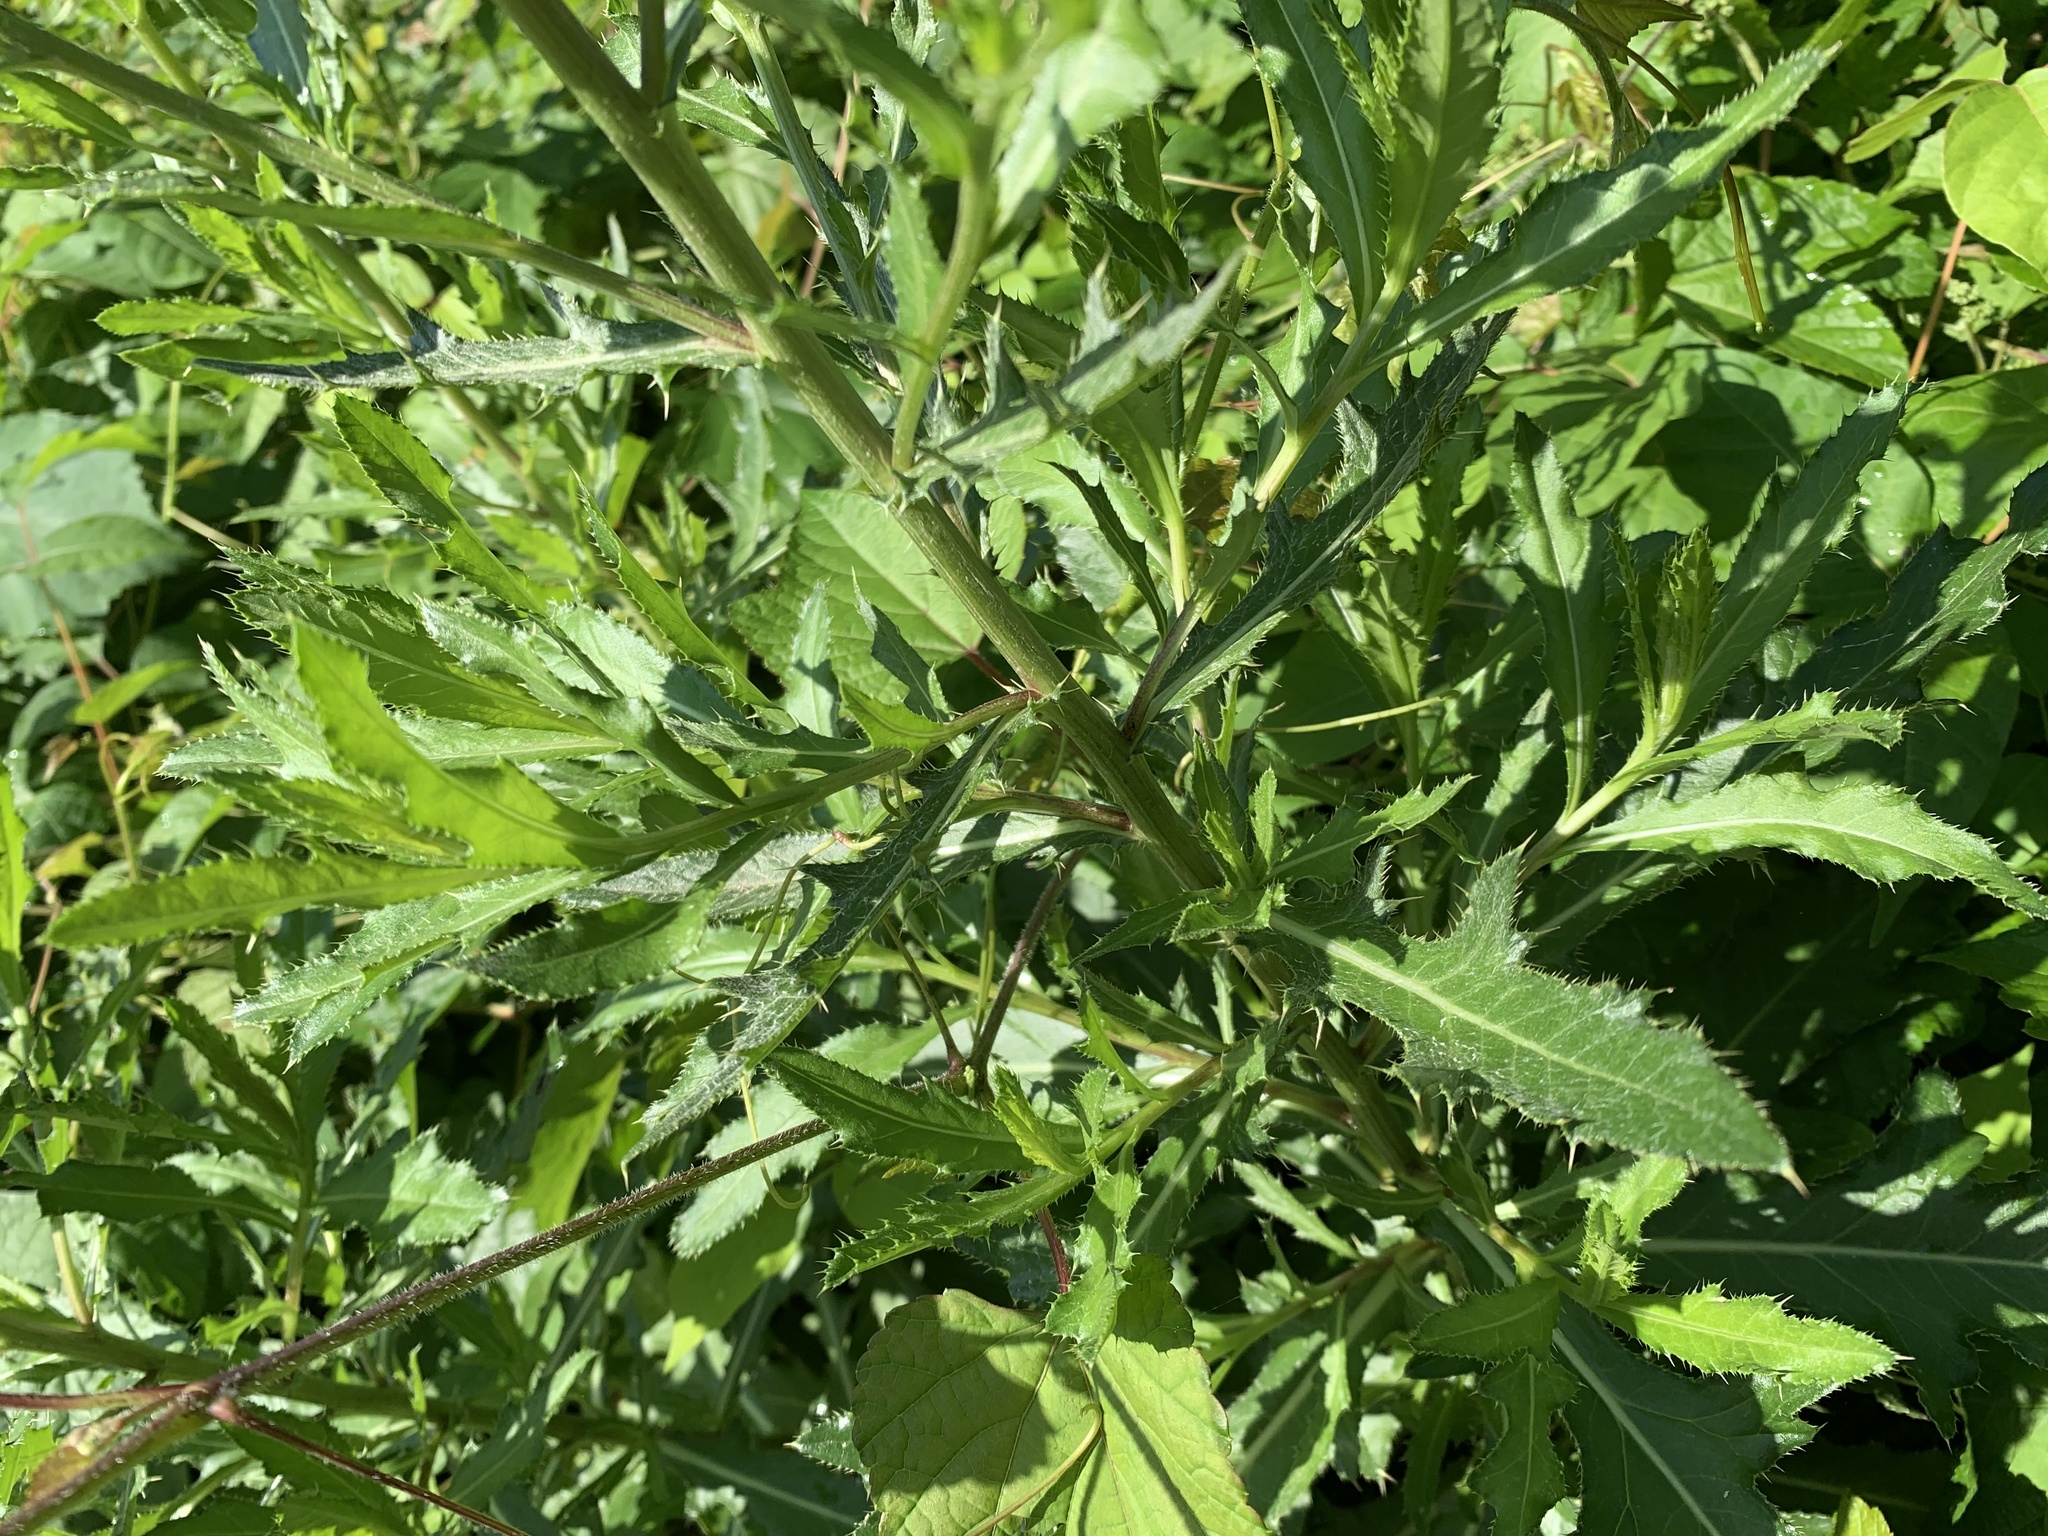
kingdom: Plantae
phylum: Tracheophyta
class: Magnoliopsida
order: Asterales
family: Asteraceae
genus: Cirsium
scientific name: Cirsium arvense
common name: Creeping thistle
